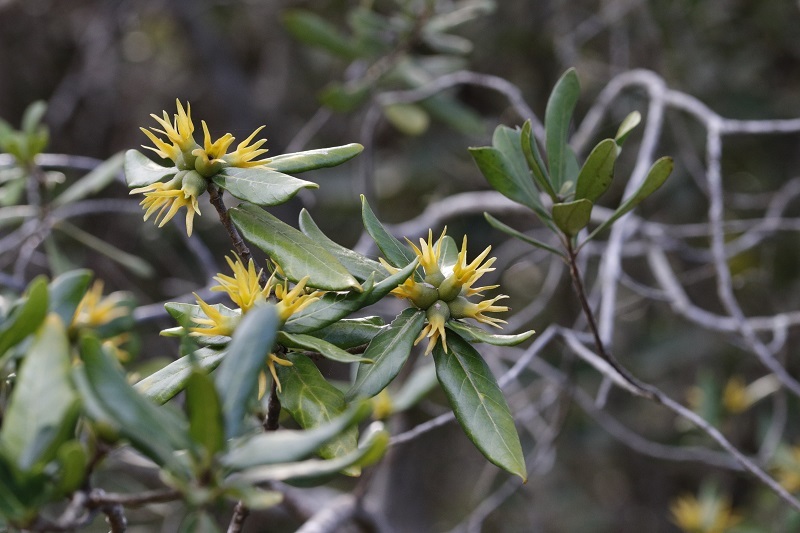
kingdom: Plantae
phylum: Tracheophyta
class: Magnoliopsida
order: Gentianales
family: Rubiaceae
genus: Burchellia
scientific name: Burchellia bubalina
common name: Wild pomegranate
